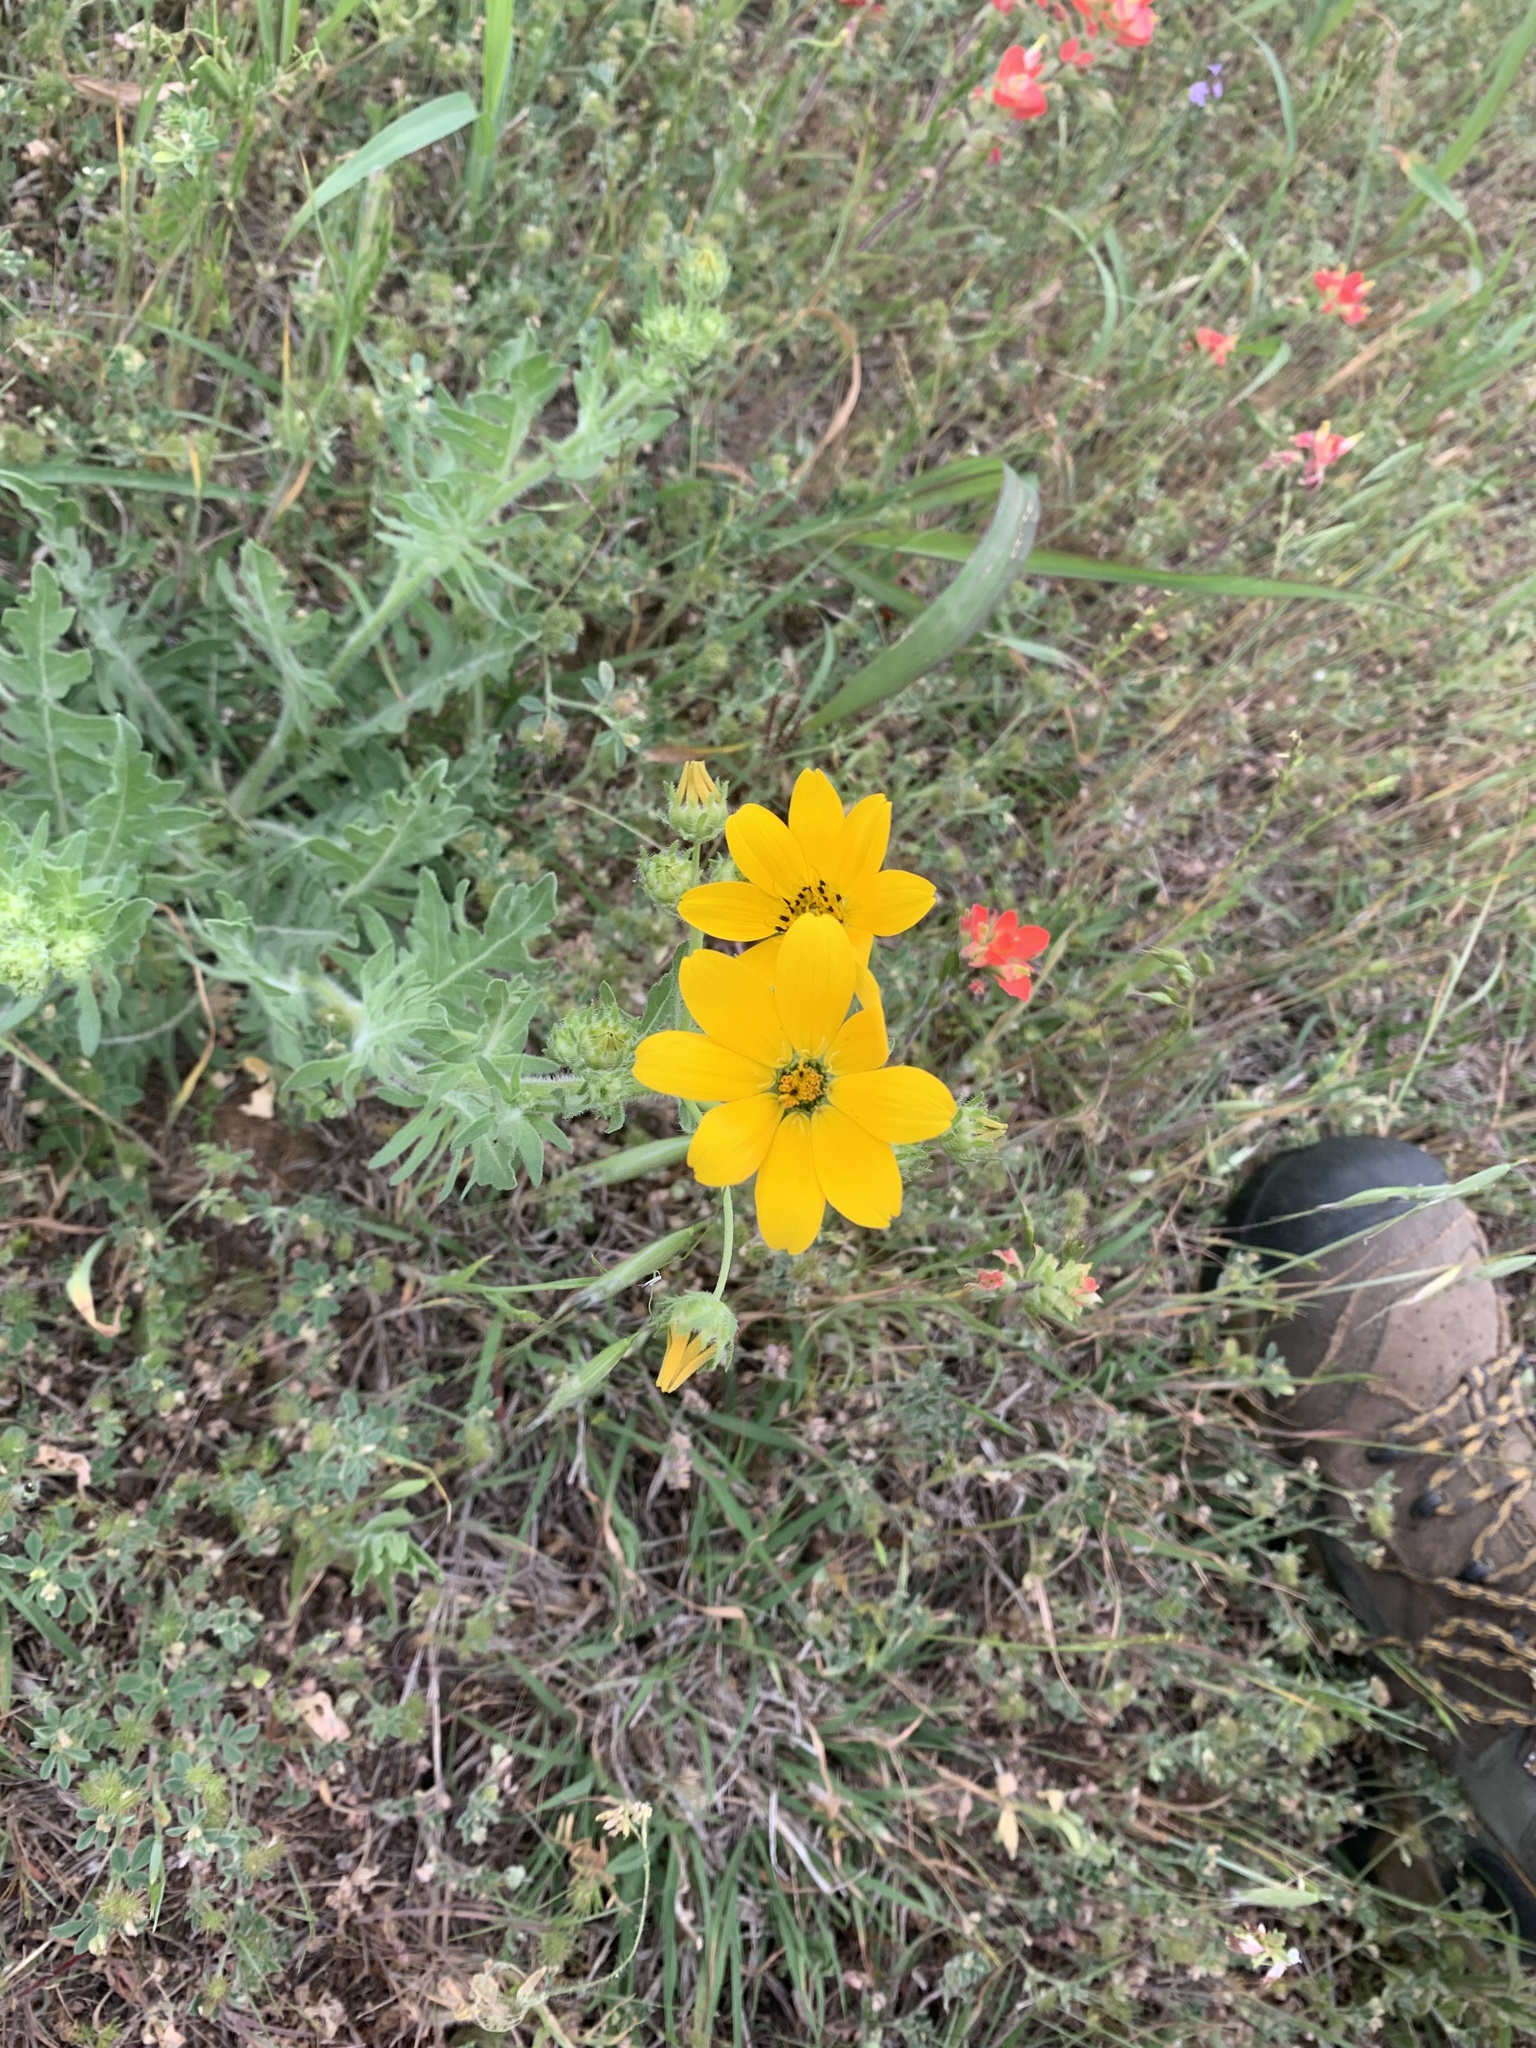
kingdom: Plantae
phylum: Tracheophyta
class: Magnoliopsida
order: Asterales
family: Asteraceae
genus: Engelmannia
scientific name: Engelmannia peristenia
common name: Engelmann's daisy
